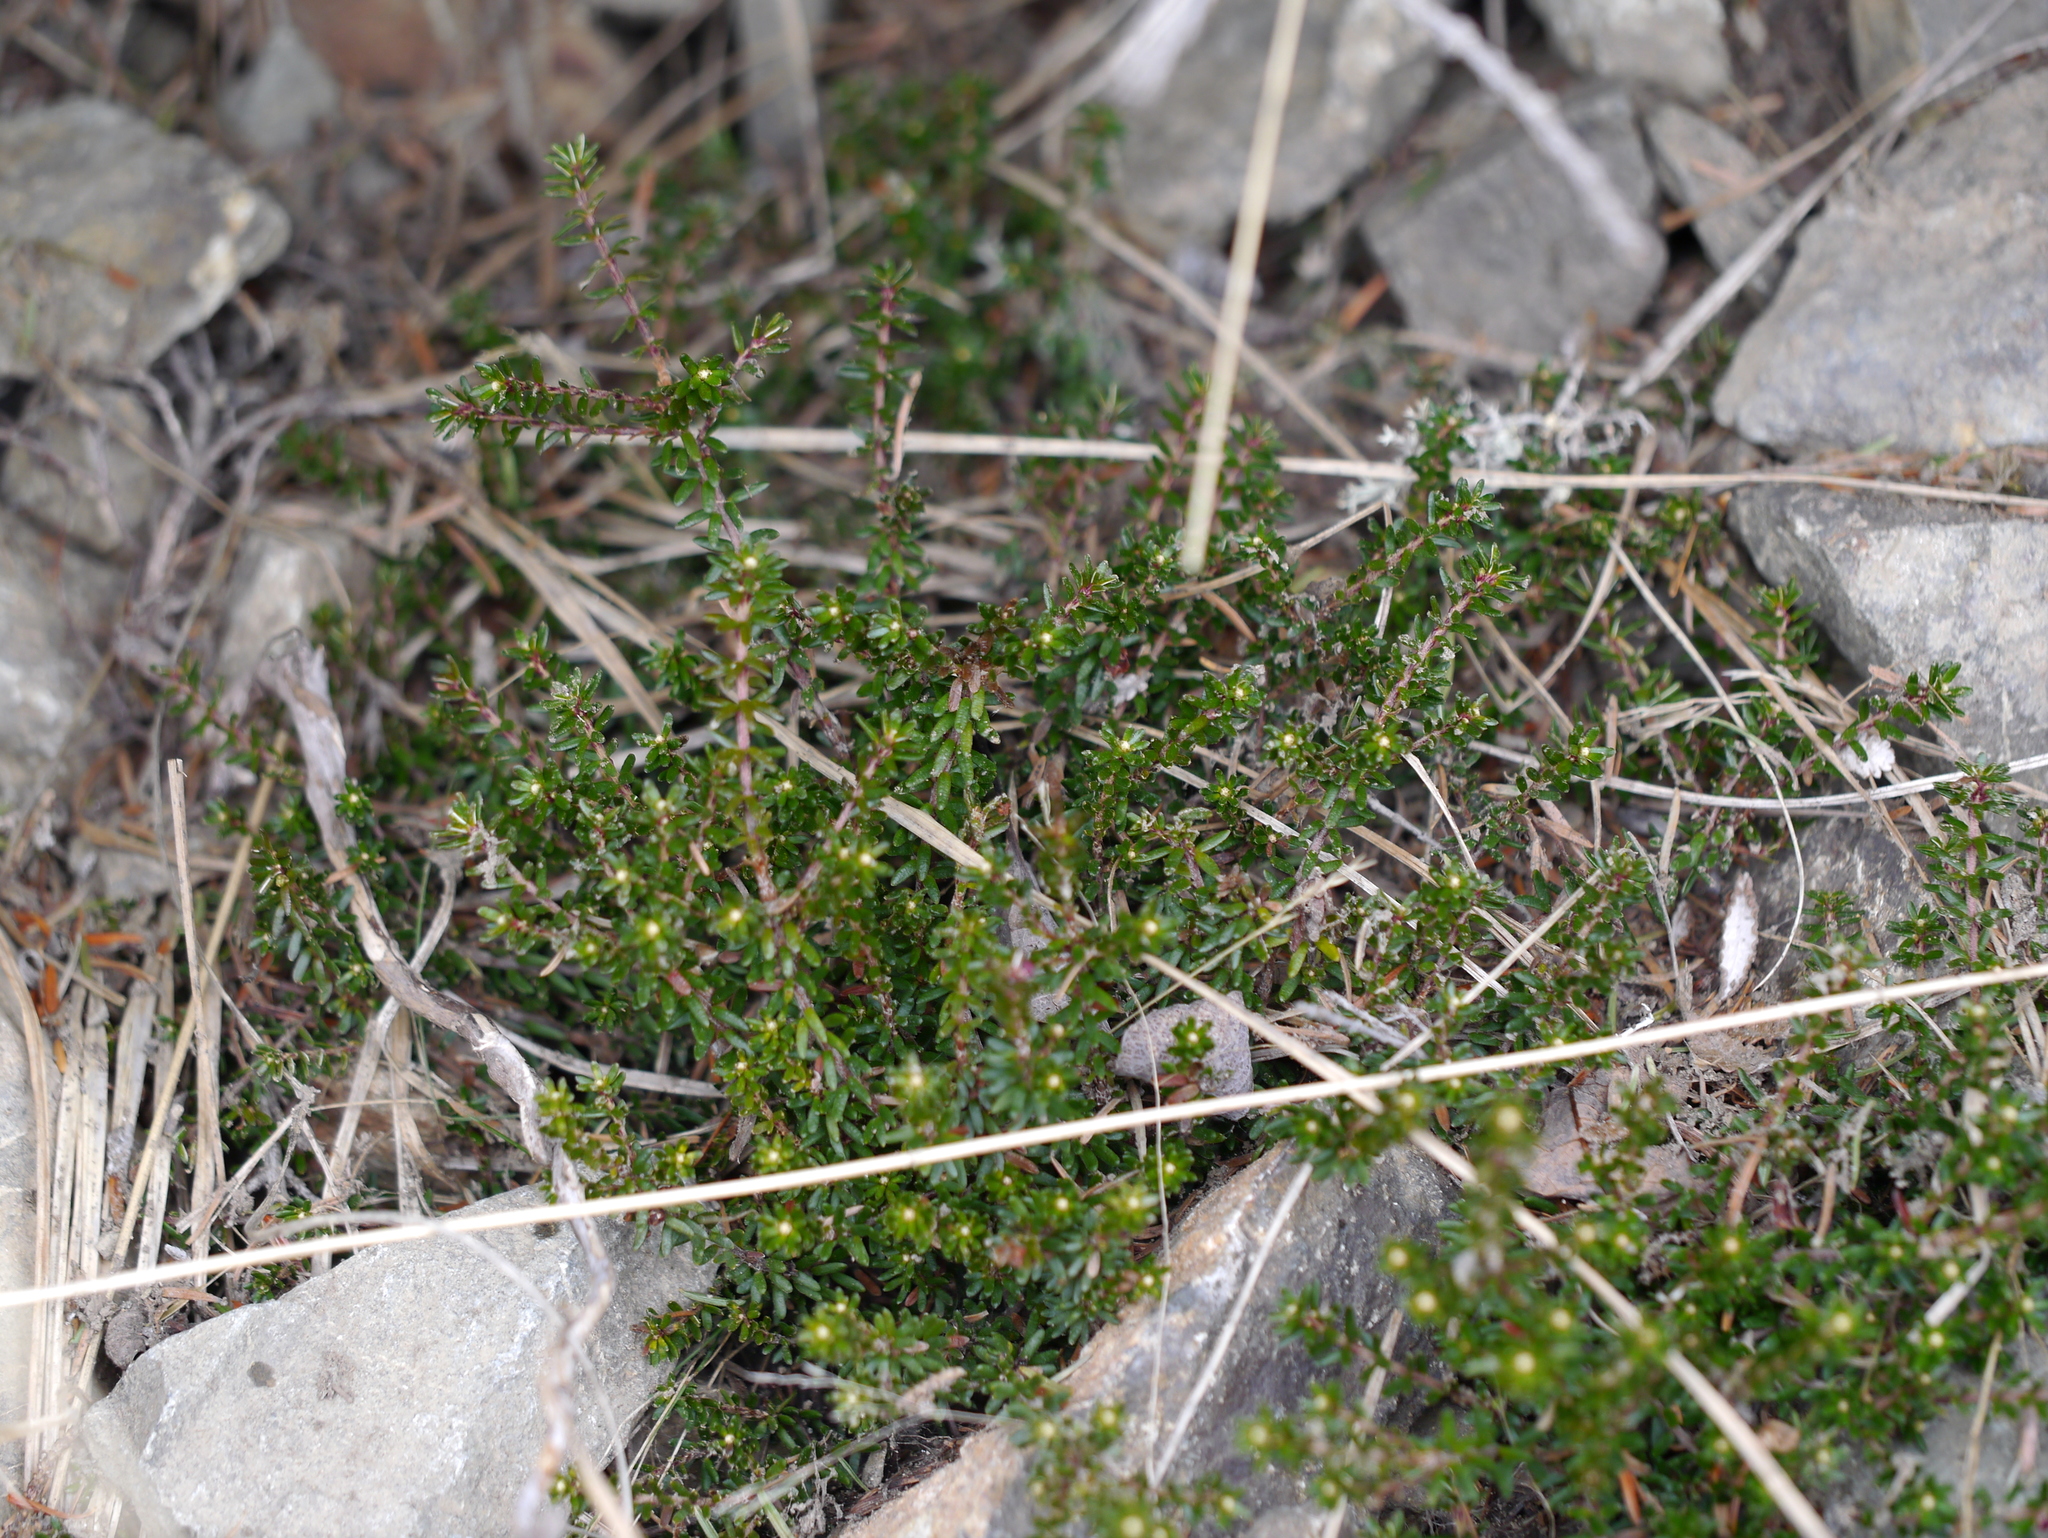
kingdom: Plantae
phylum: Tracheophyta
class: Magnoliopsida
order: Ericales
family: Ericaceae
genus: Empetrum
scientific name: Empetrum nigrum
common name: Black crowberry
